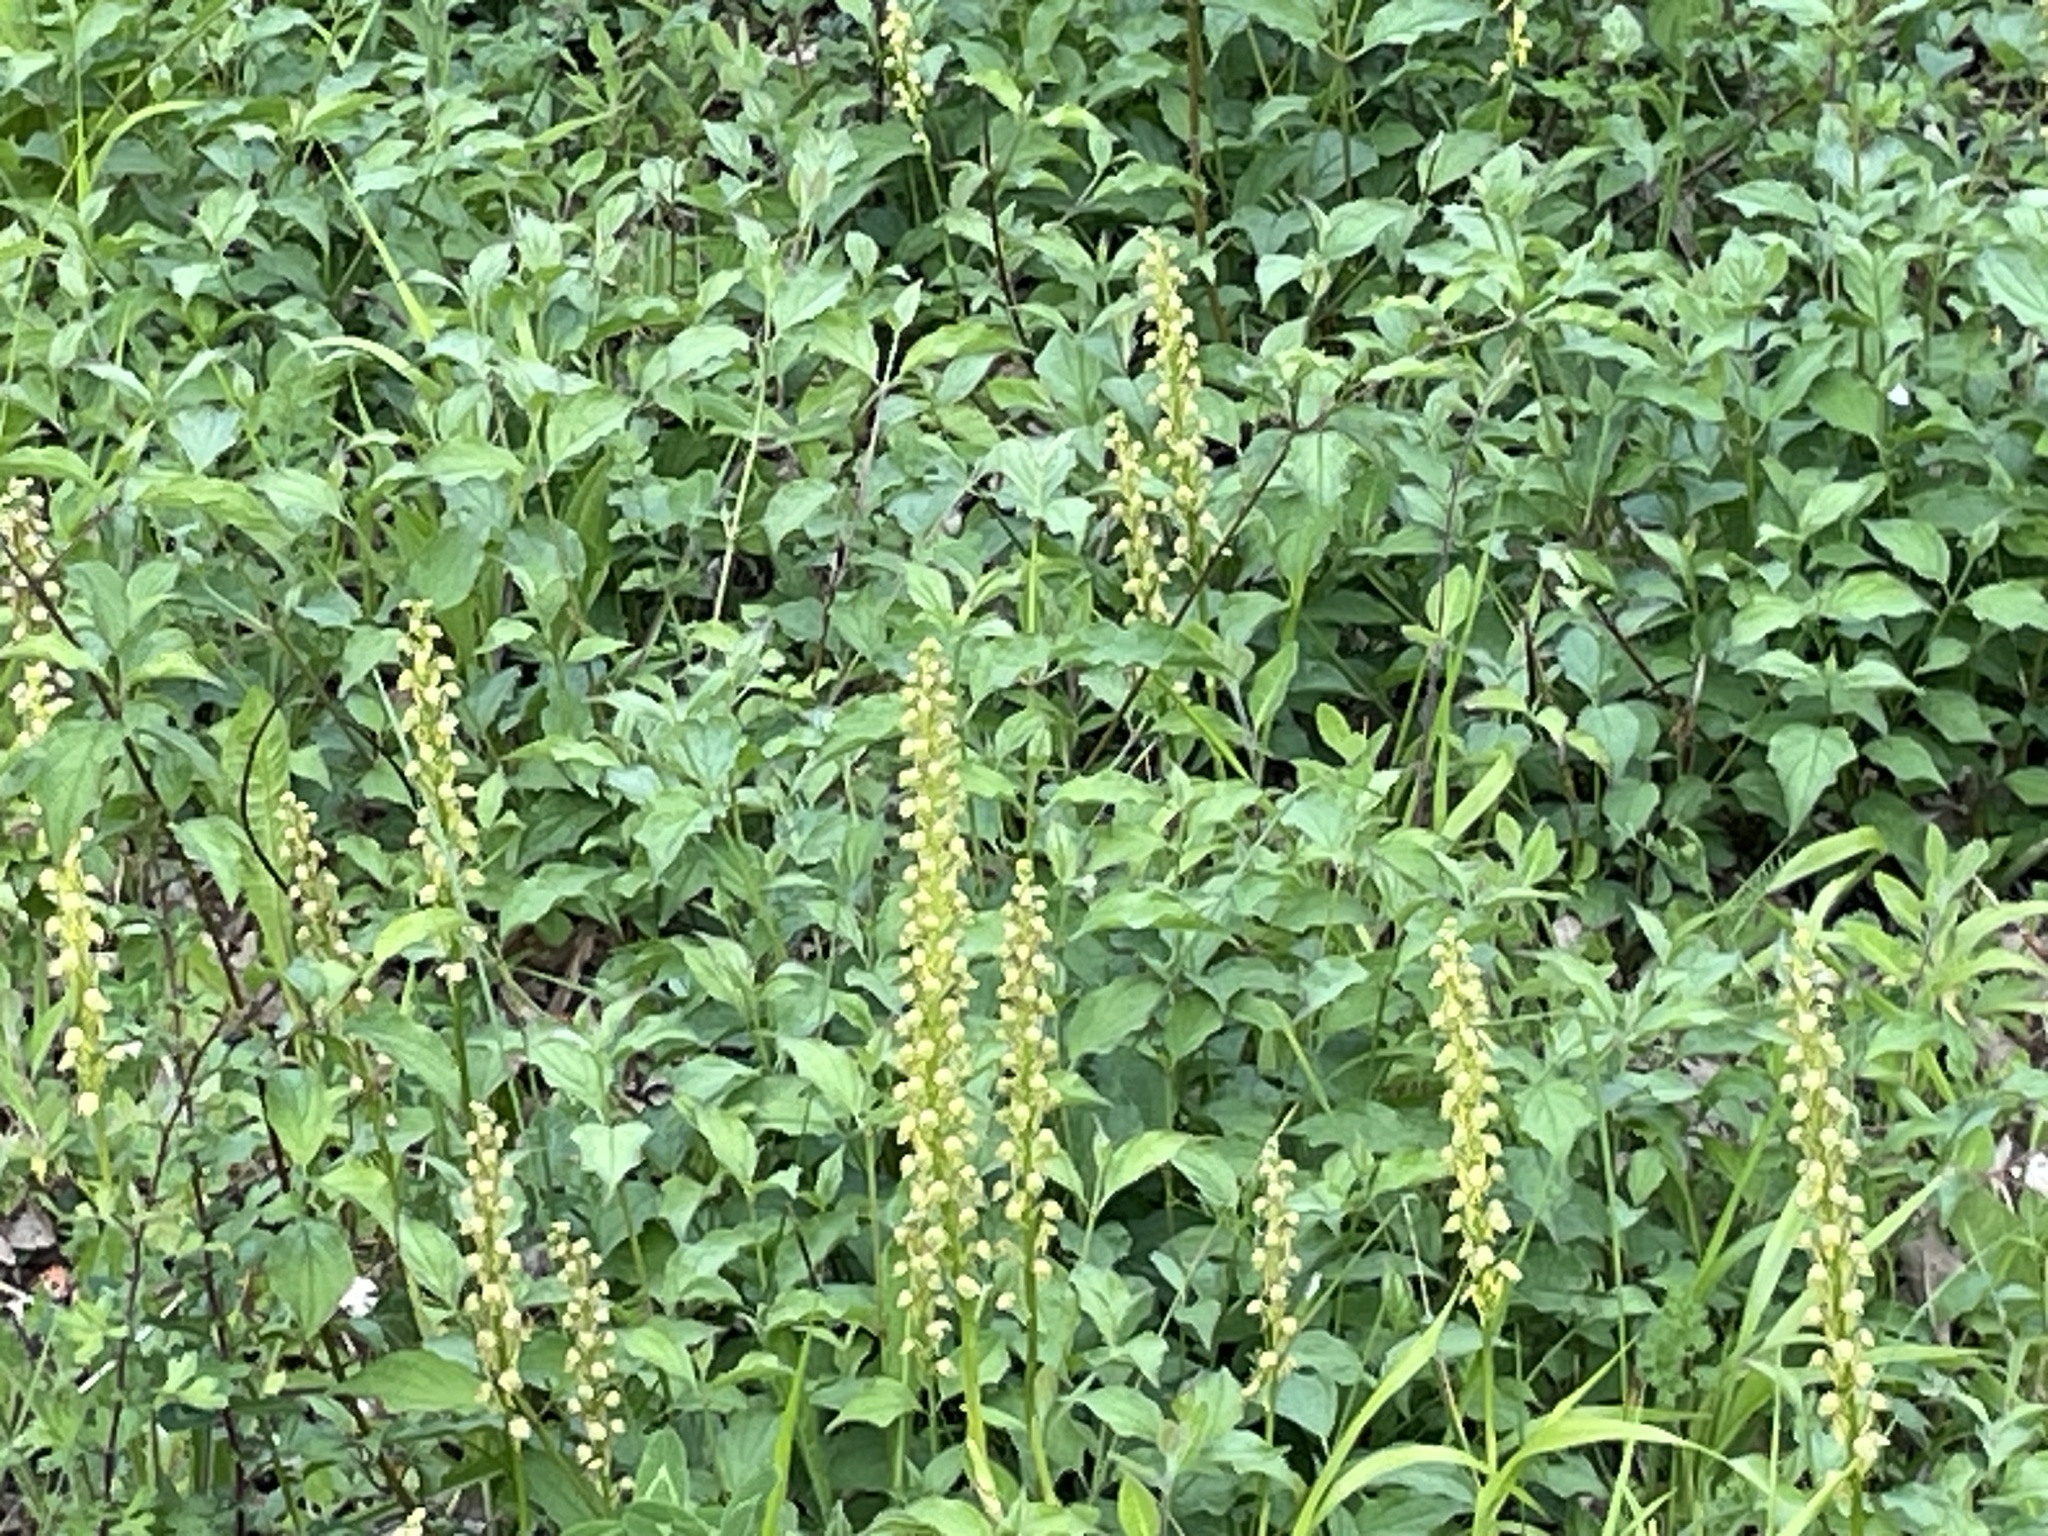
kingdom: Plantae
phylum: Tracheophyta
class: Liliopsida
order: Asparagales
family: Orchidaceae
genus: Orchis
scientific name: Orchis anthropophora
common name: Man orchid
